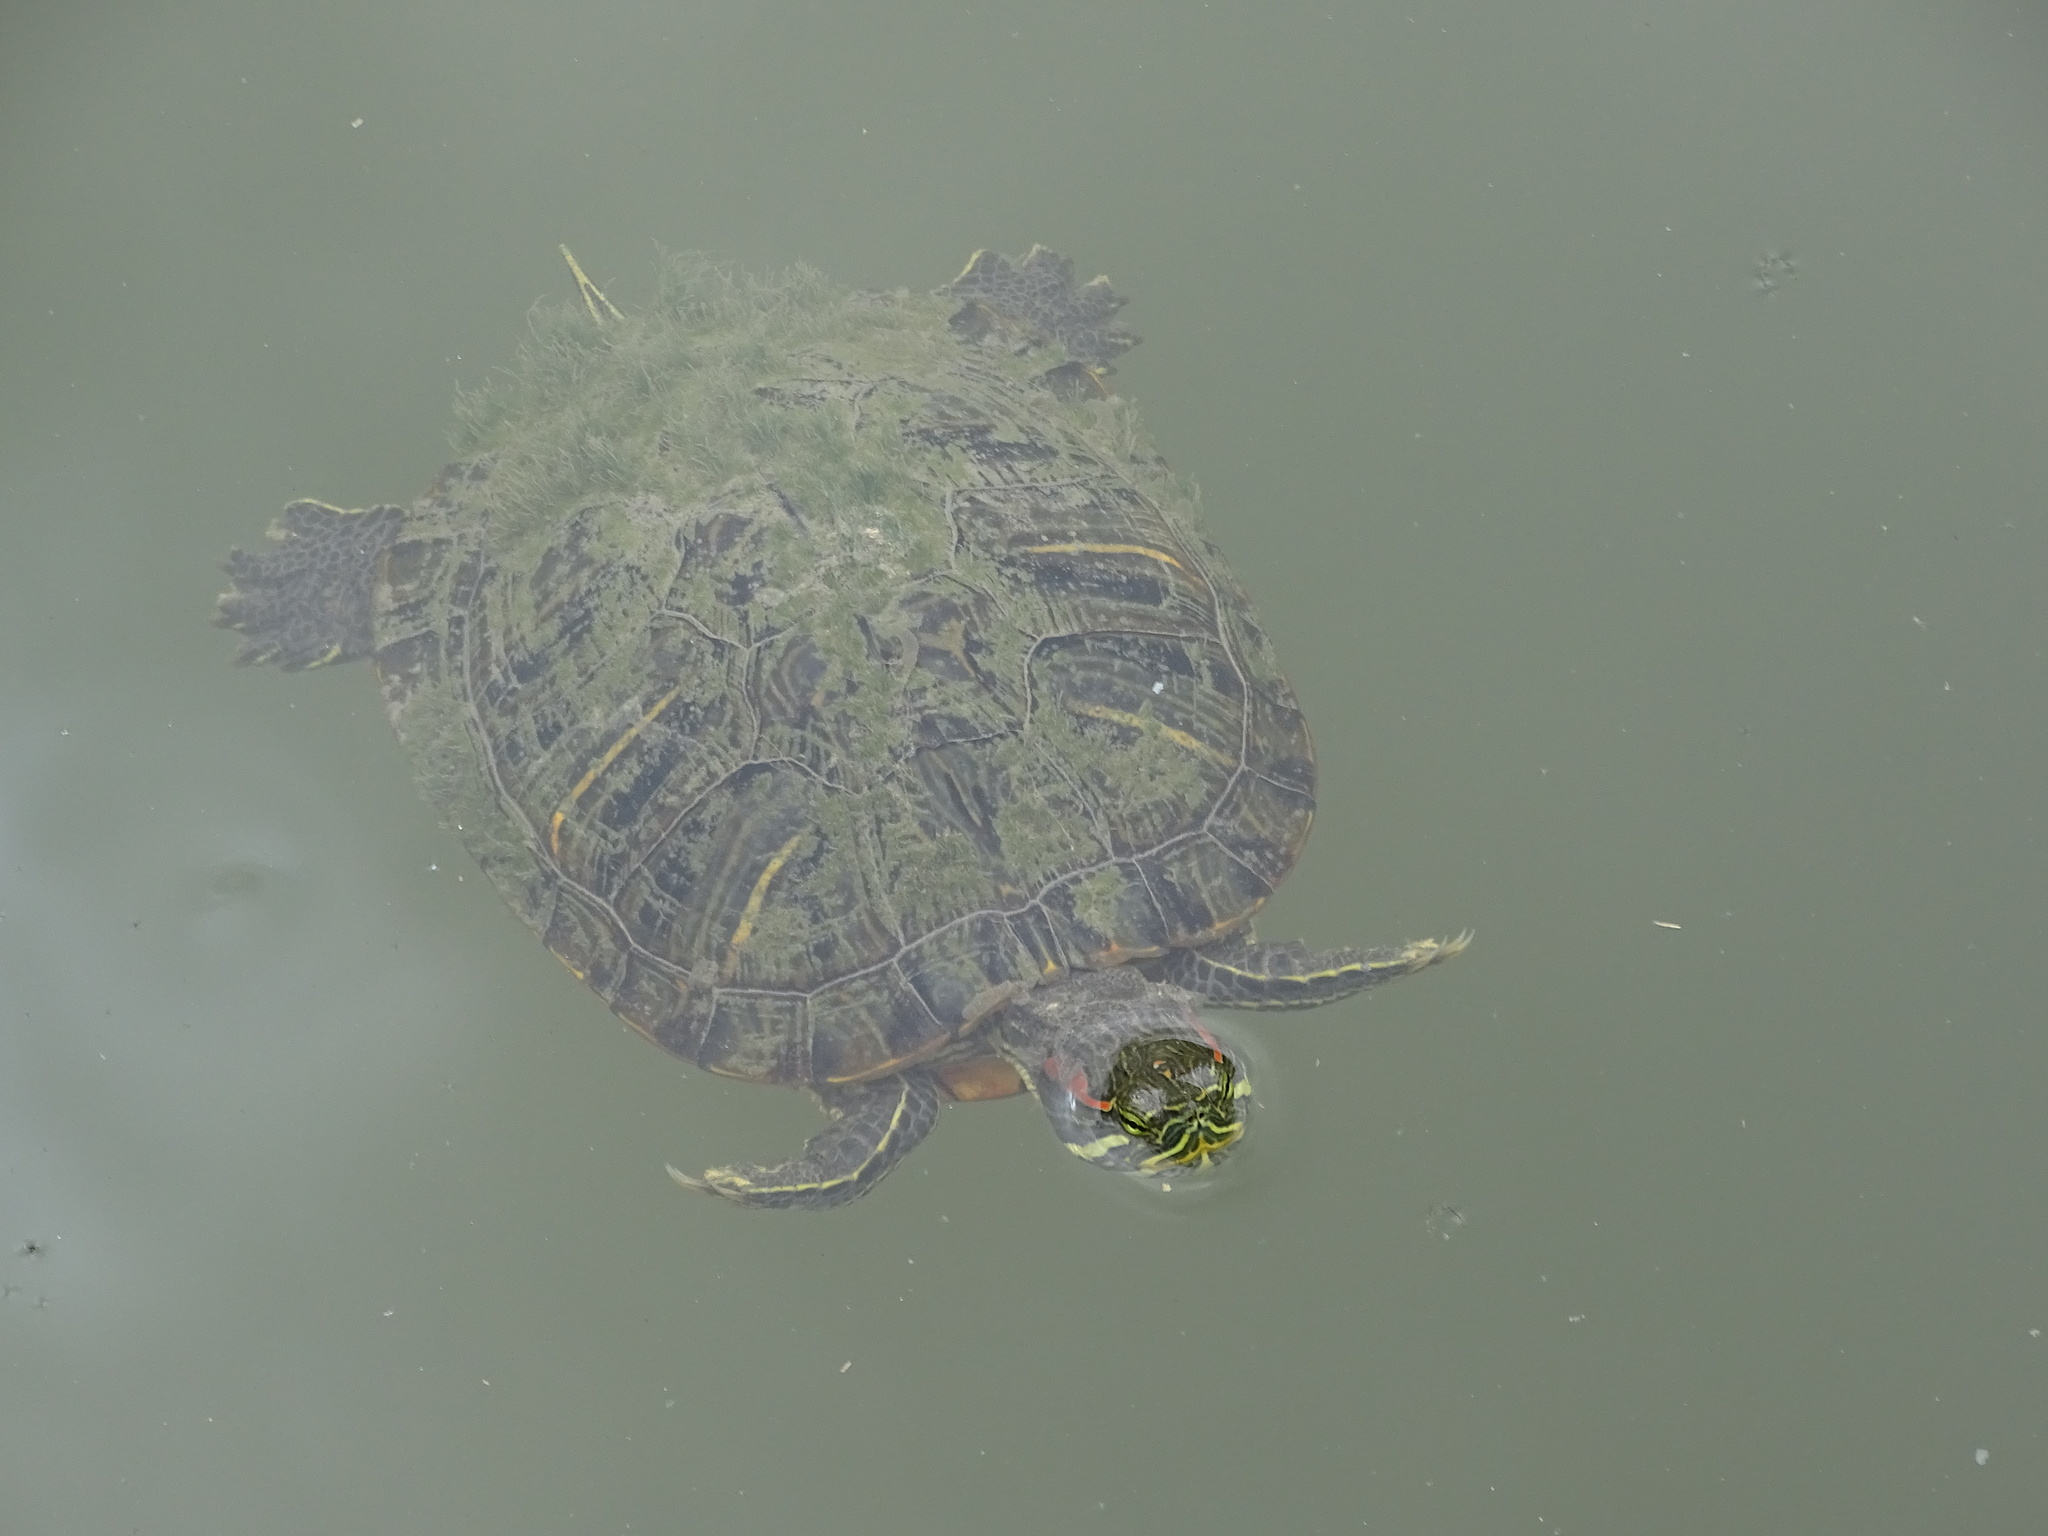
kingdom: Animalia
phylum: Chordata
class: Testudines
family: Emydidae
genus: Trachemys
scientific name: Trachemys scripta
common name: Slider
